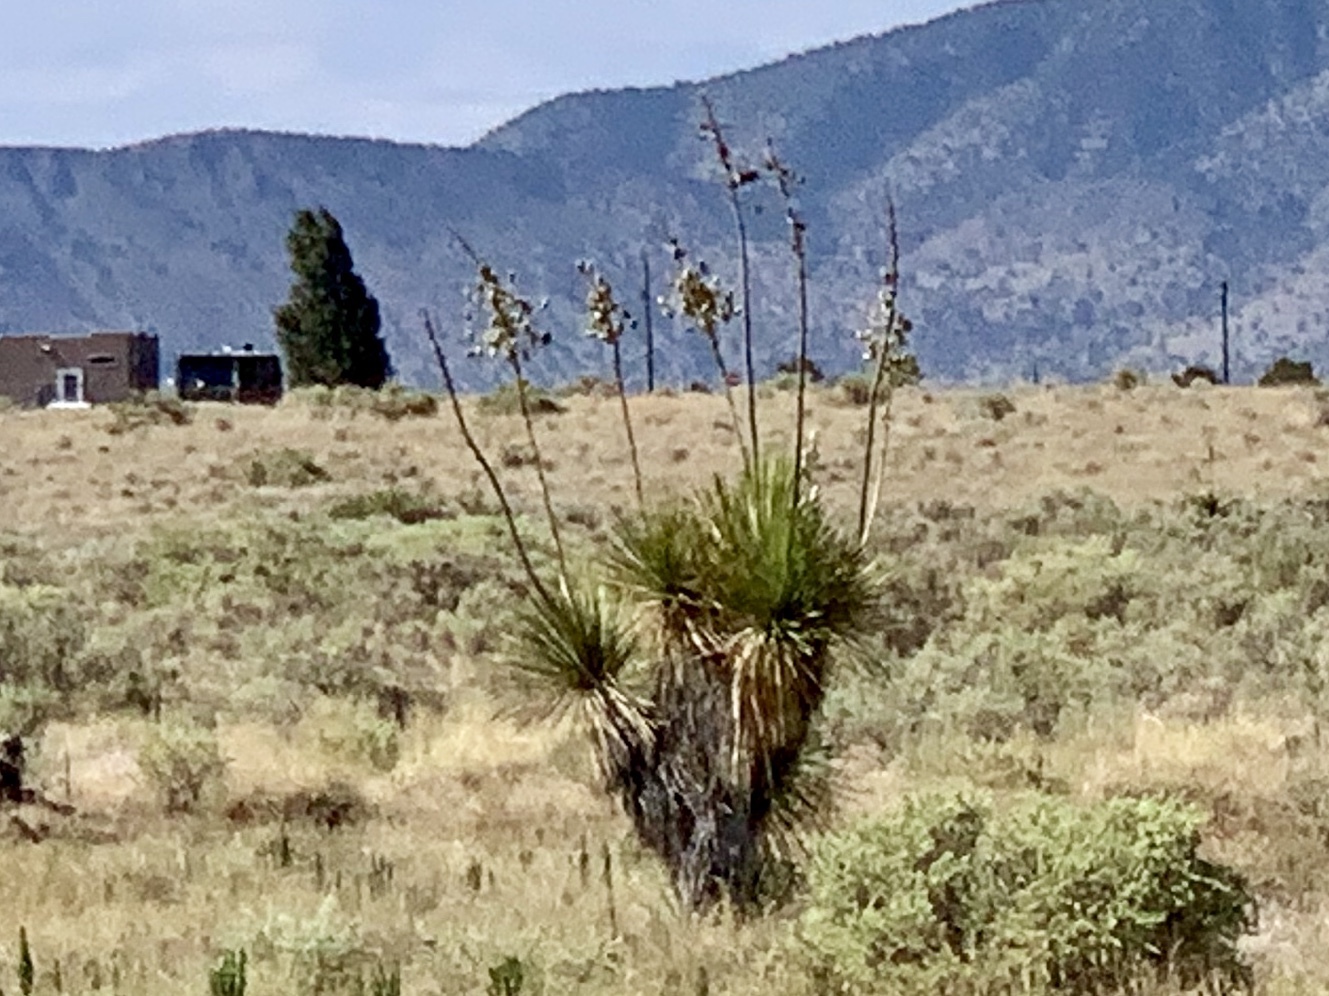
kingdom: Plantae
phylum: Tracheophyta
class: Liliopsida
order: Asparagales
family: Asparagaceae
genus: Yucca
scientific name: Yucca elata
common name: Palmella
